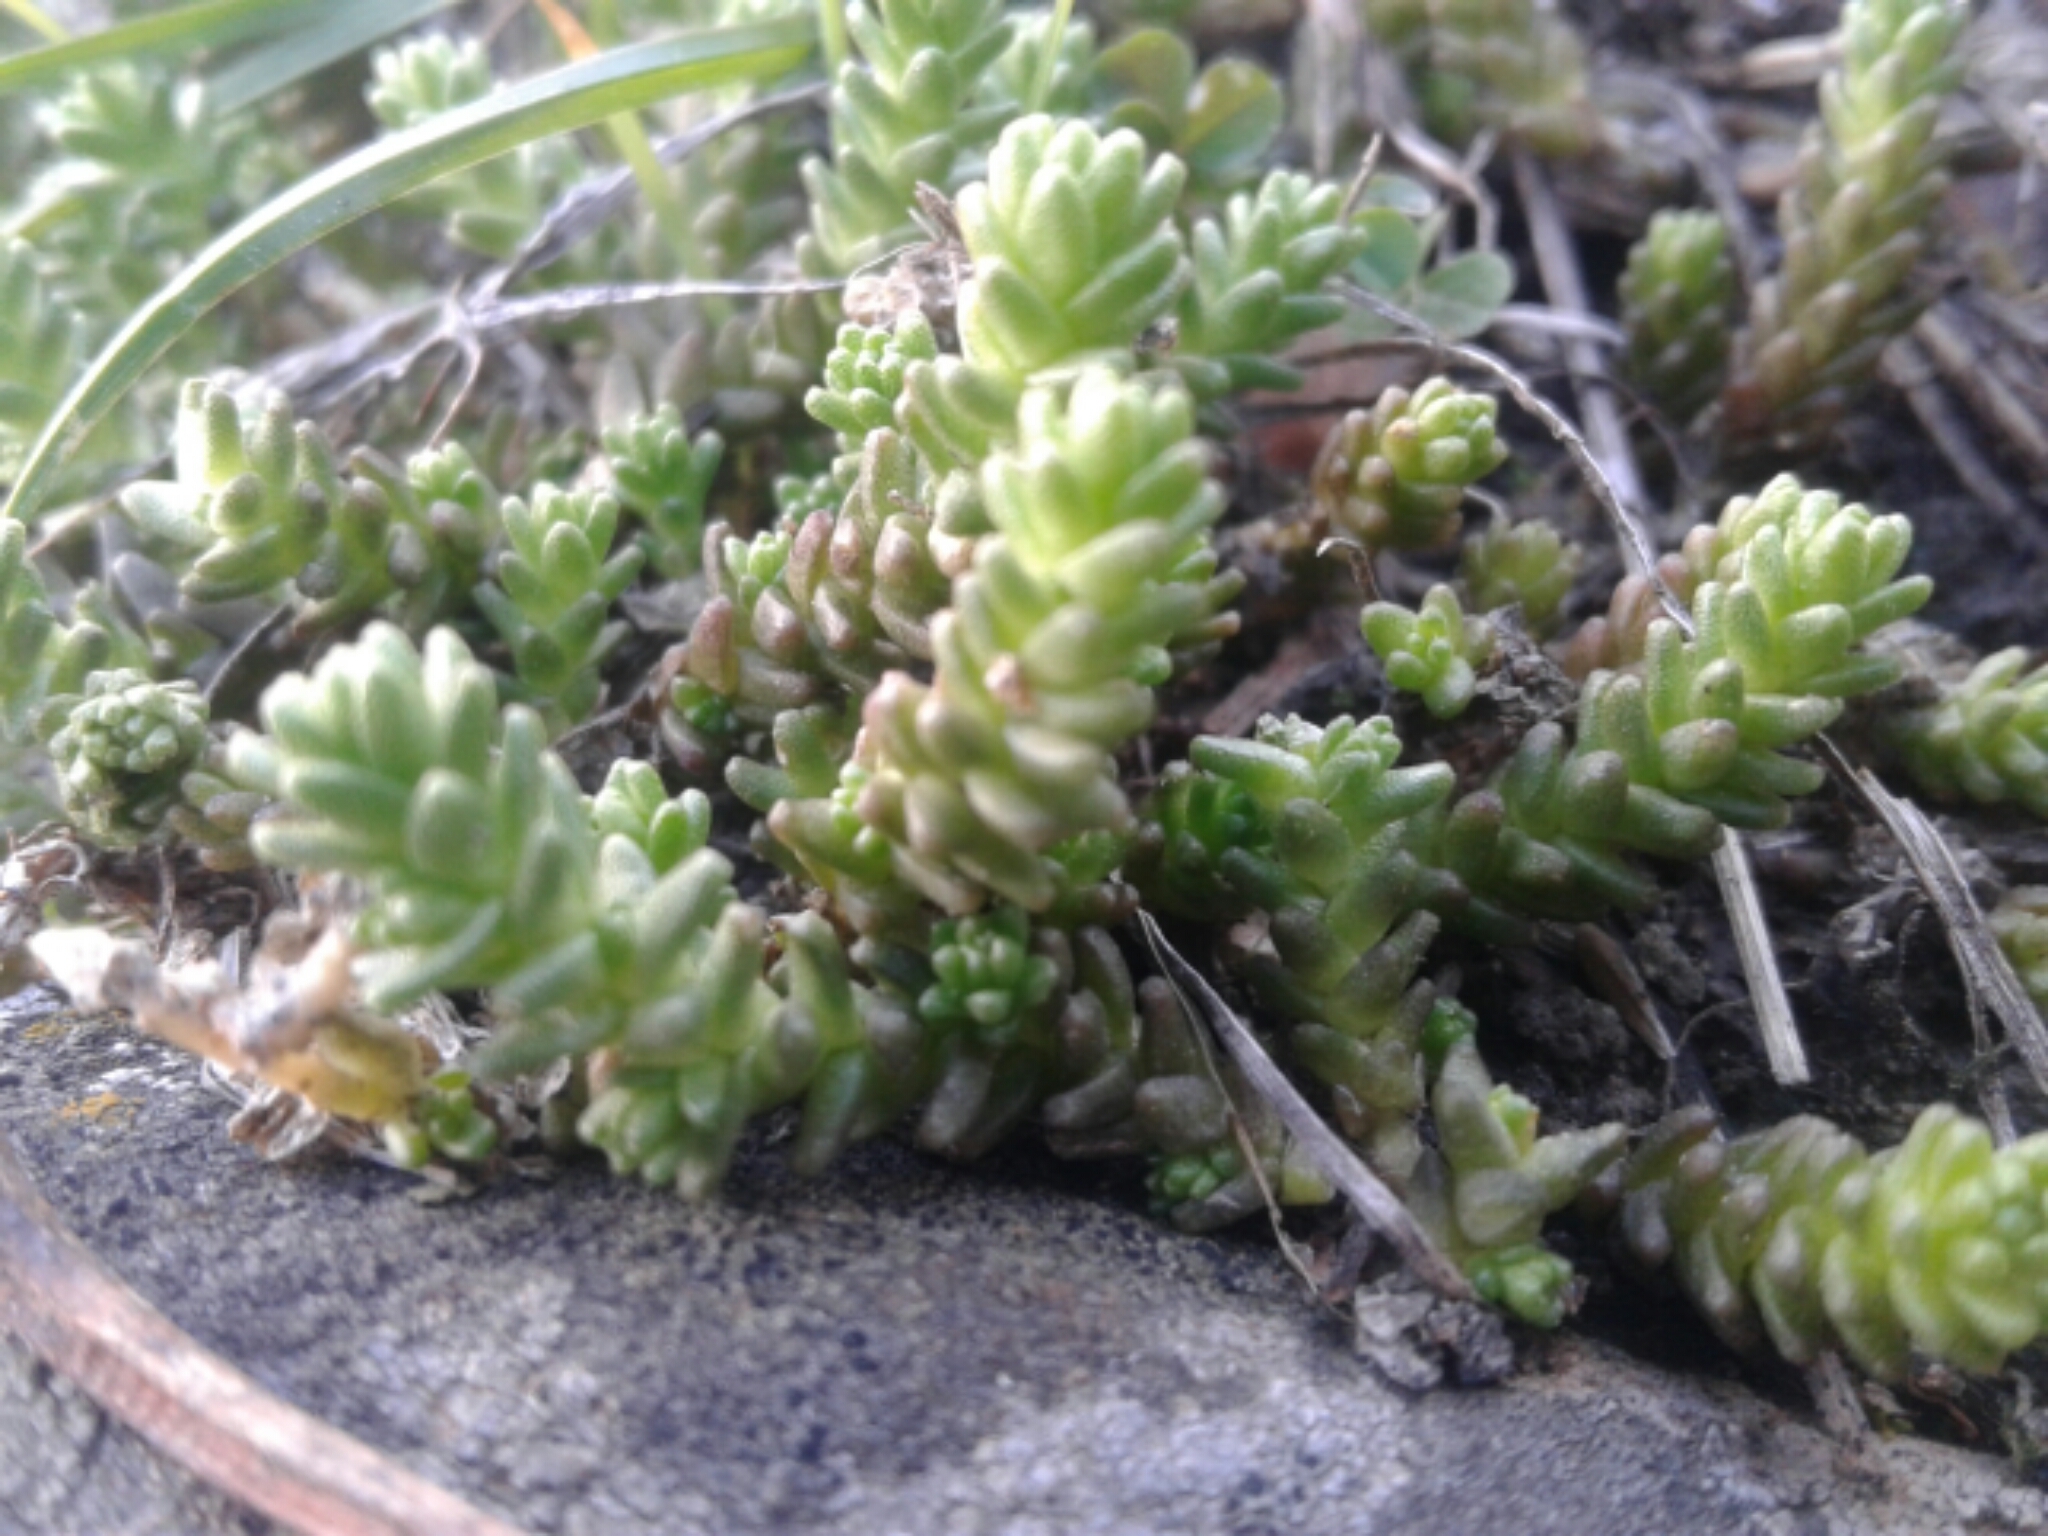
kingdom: Plantae
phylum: Tracheophyta
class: Magnoliopsida
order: Saxifragales
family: Crassulaceae
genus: Sedum
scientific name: Sedum acre
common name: Biting stonecrop
